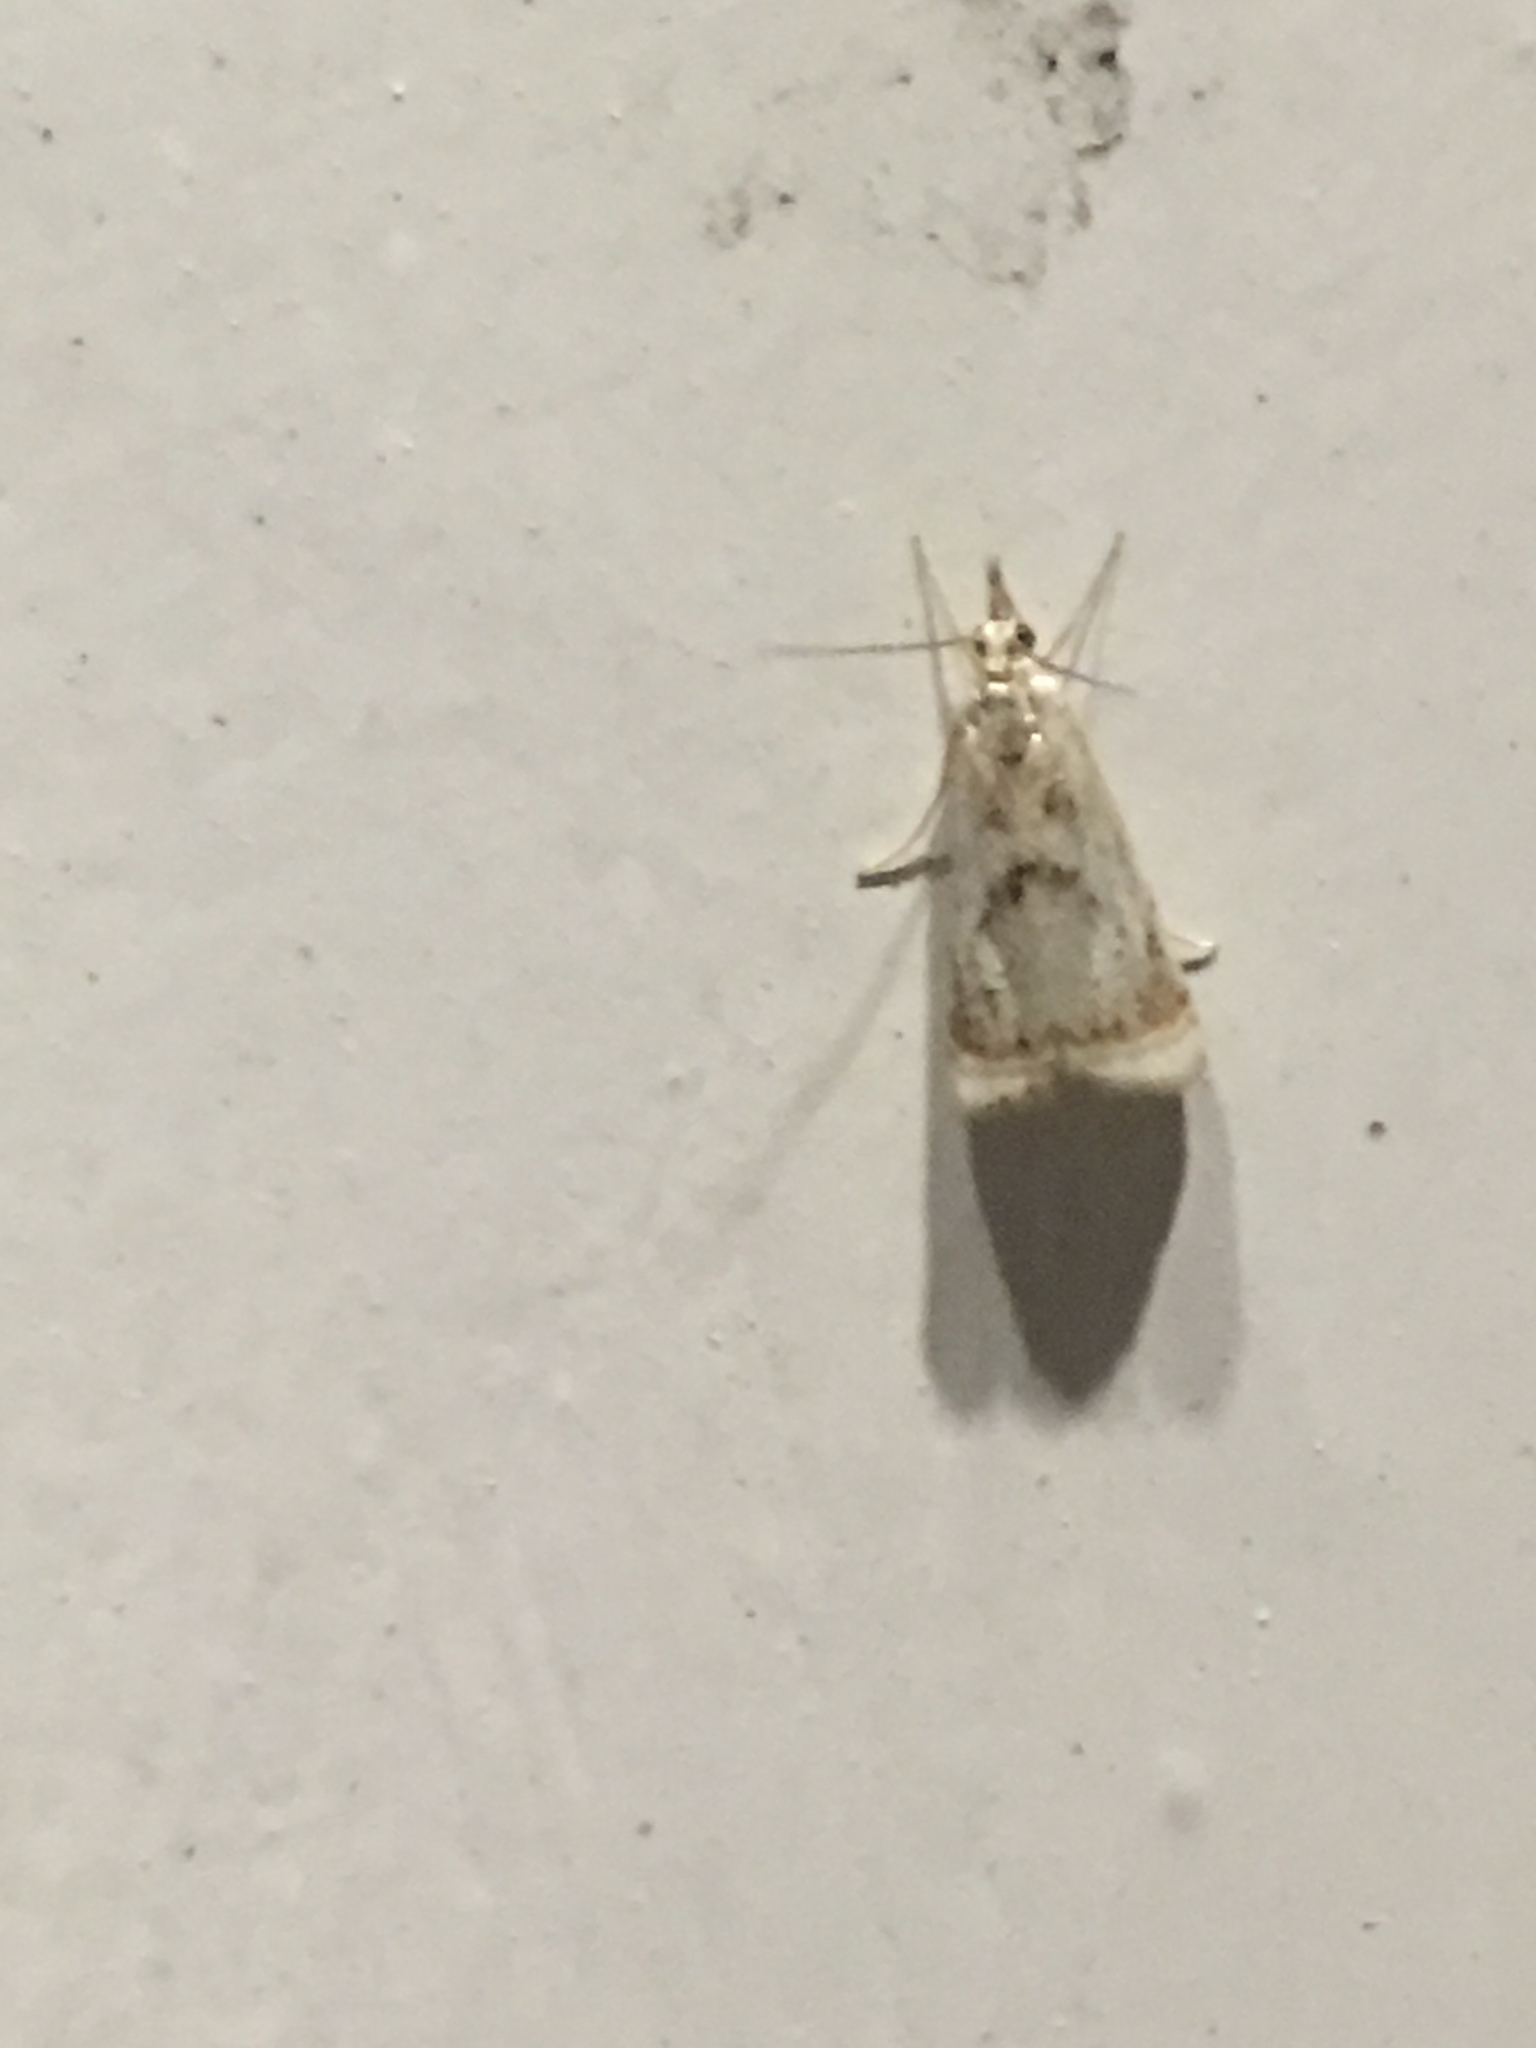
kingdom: Animalia
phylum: Arthropoda
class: Insecta
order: Lepidoptera
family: Crambidae
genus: Microcrambus
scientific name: Microcrambus elegans
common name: Elegant grass-veneer
